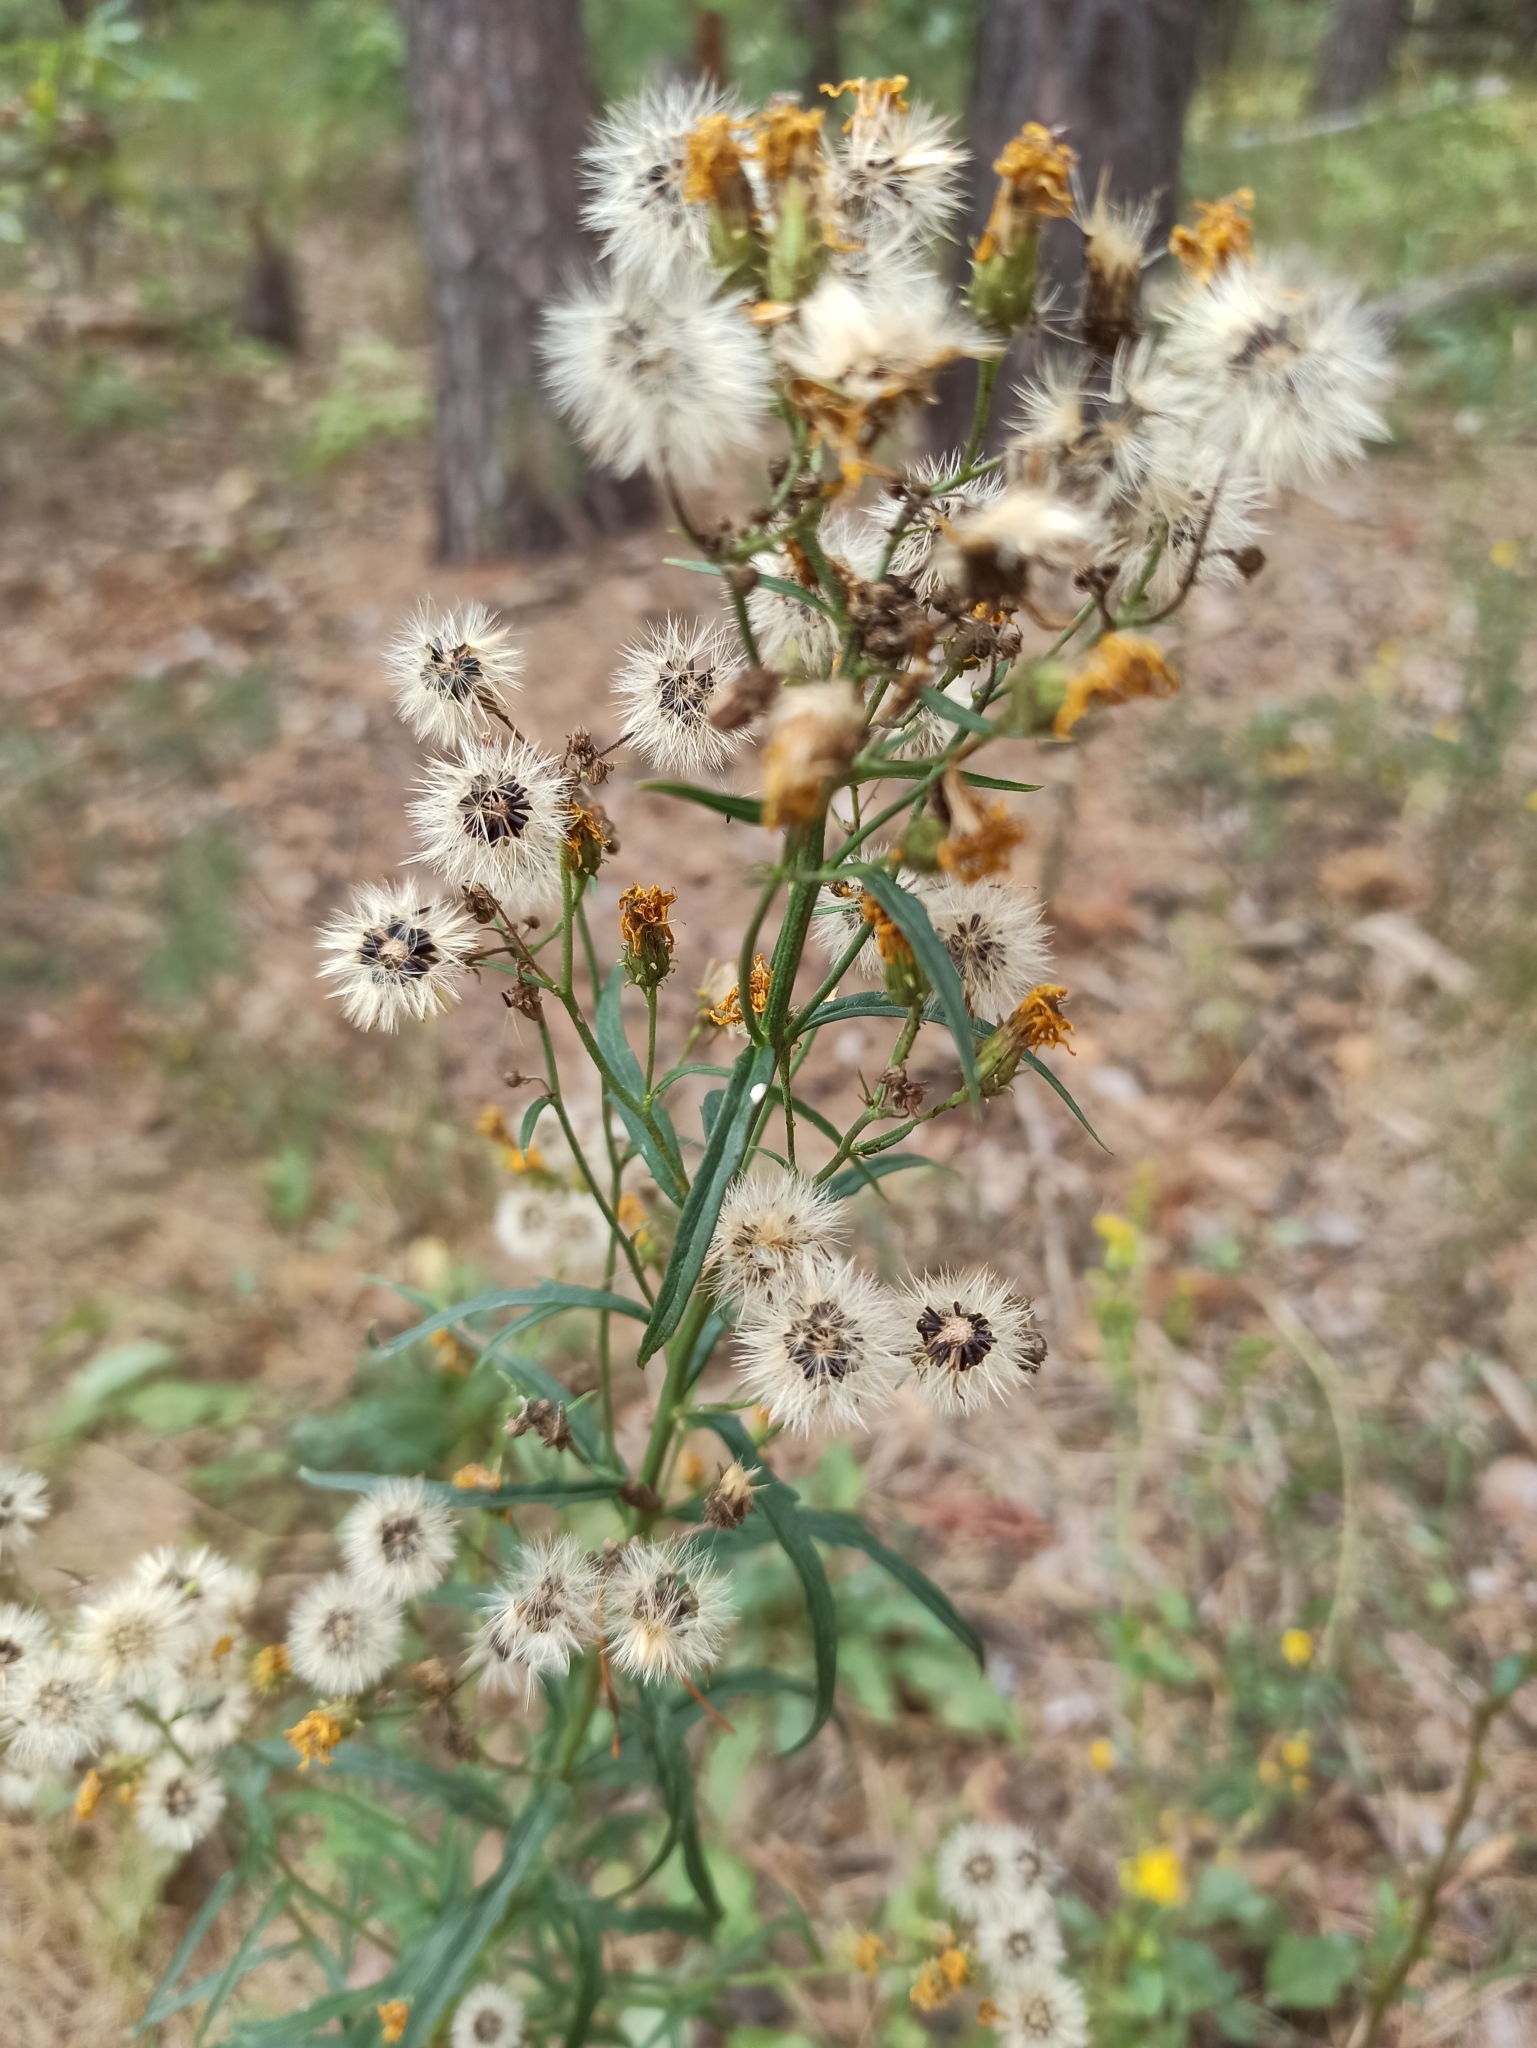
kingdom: Plantae
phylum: Tracheophyta
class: Magnoliopsida
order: Asterales
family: Asteraceae
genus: Hieracium
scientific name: Hieracium umbellatum
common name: Northern hawkweed
